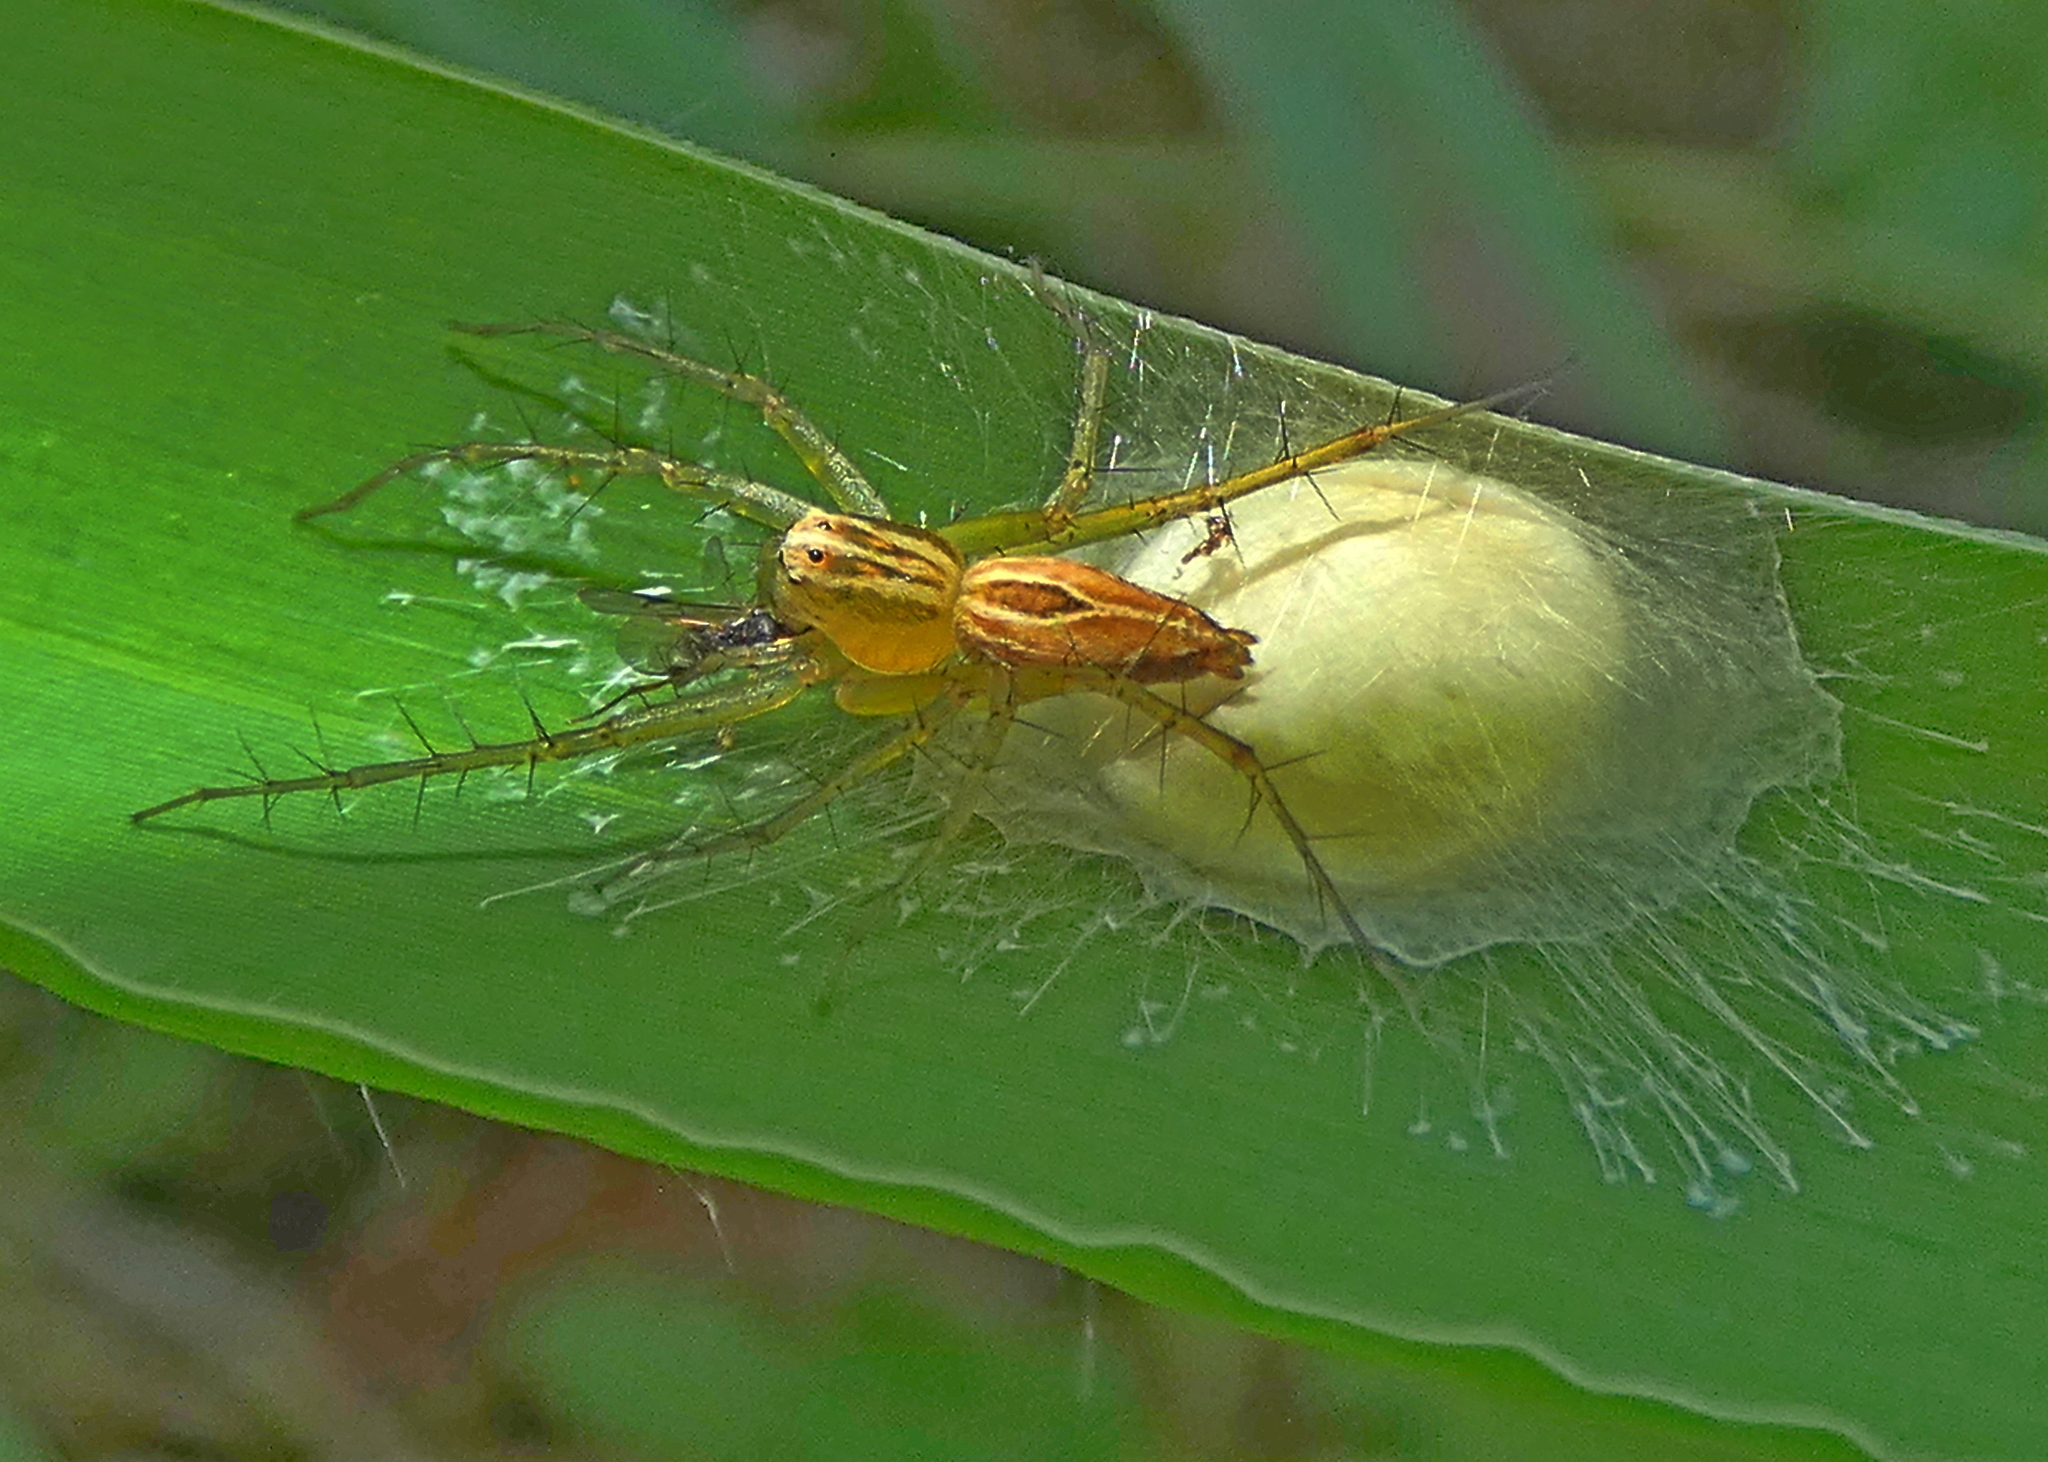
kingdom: Animalia
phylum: Arthropoda
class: Arachnida
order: Araneae
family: Oxyopidae
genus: Oxyopes
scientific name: Oxyopes salticus
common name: Lynx spiders
